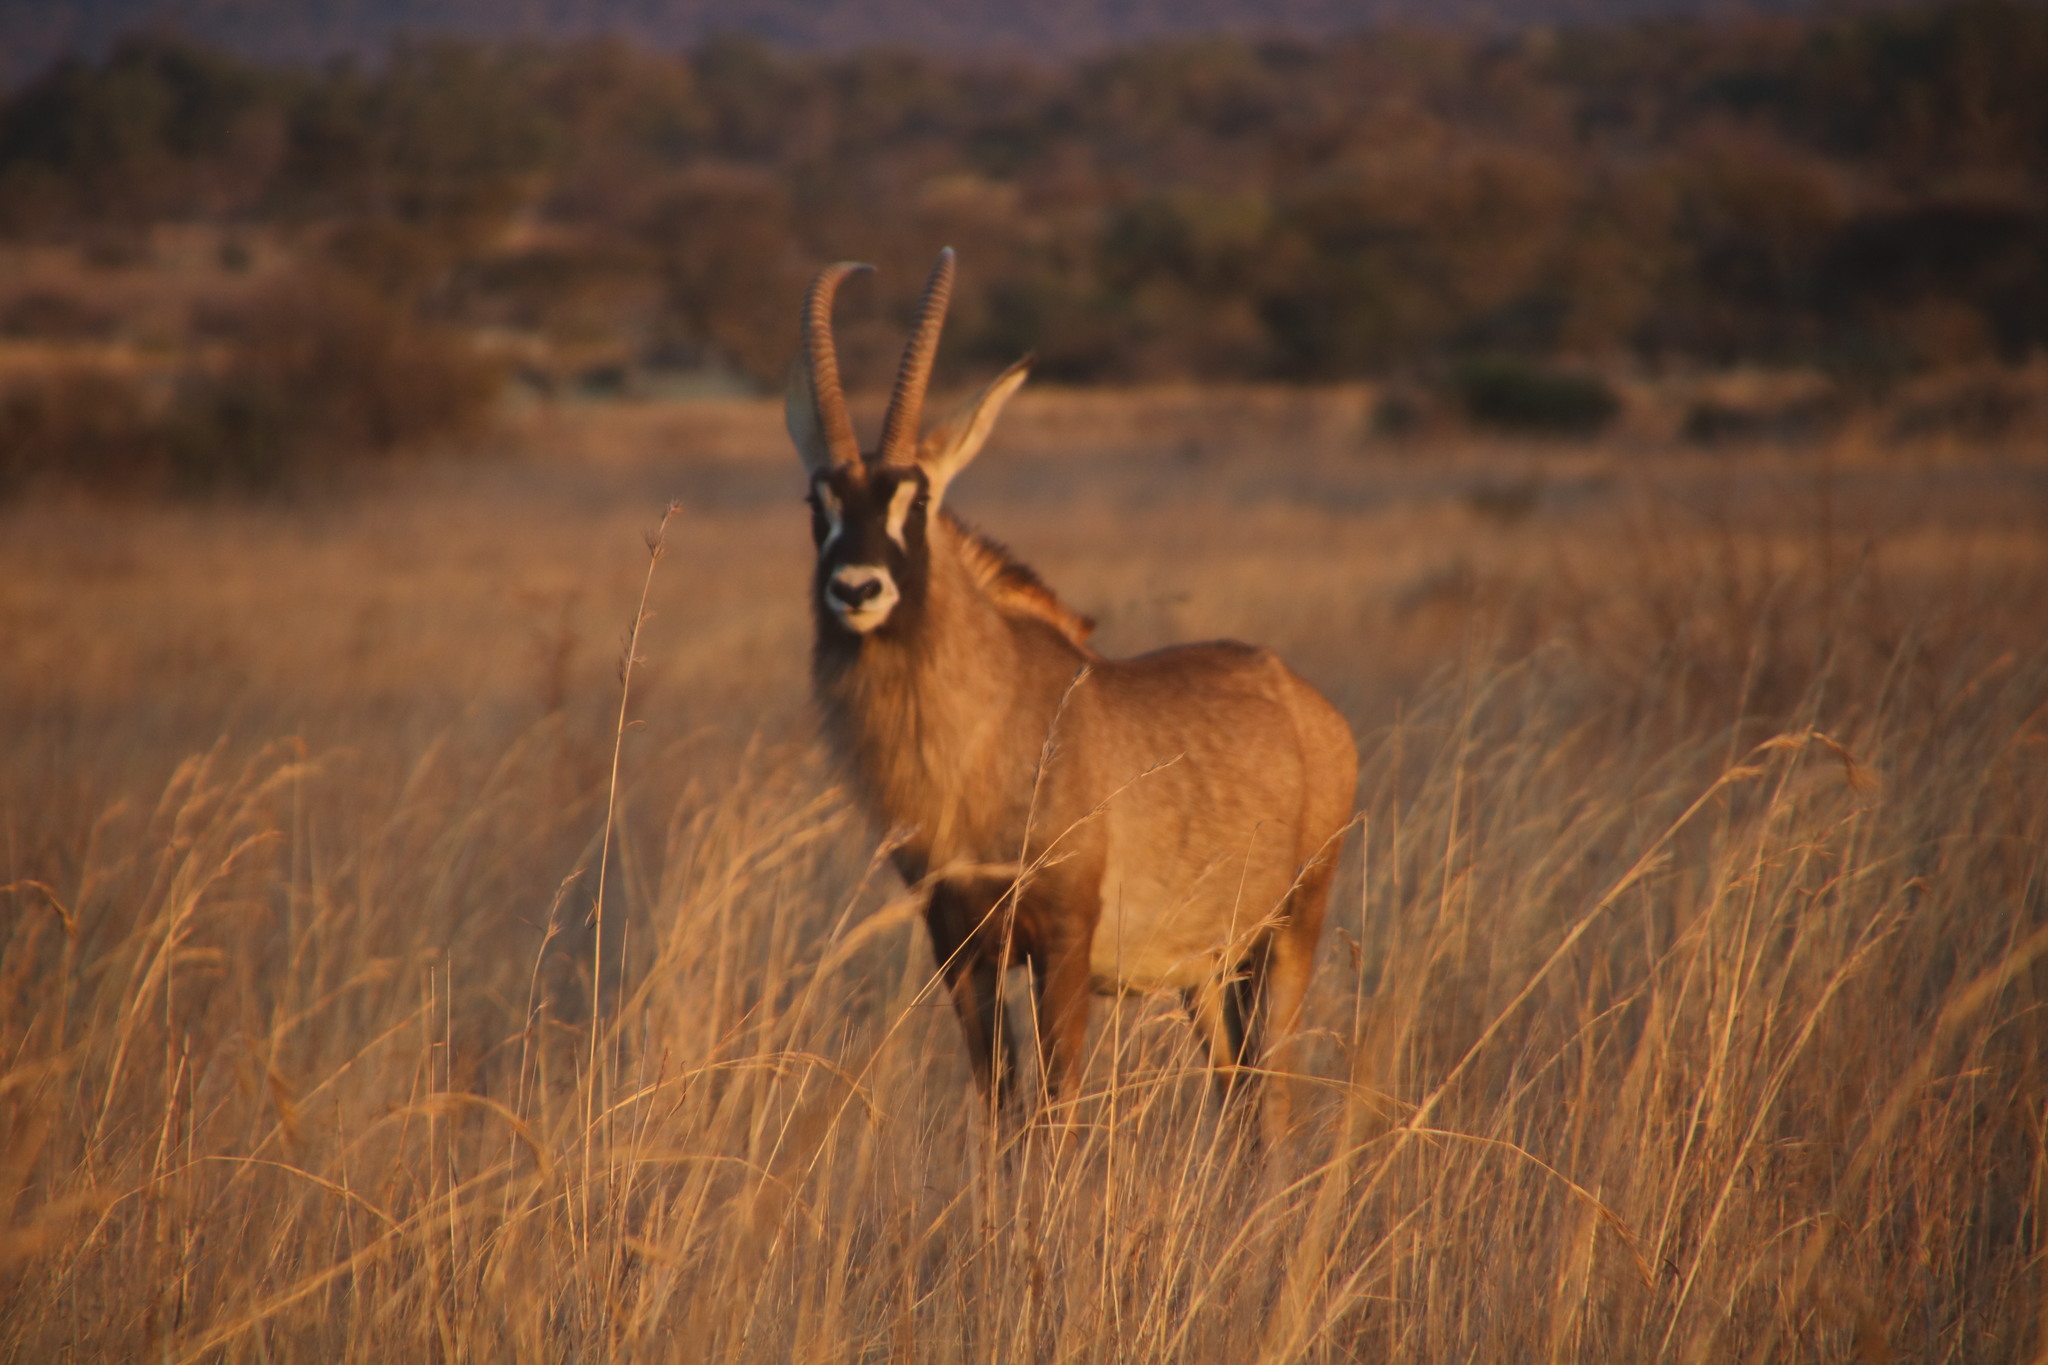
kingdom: Animalia
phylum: Chordata
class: Mammalia
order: Artiodactyla
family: Bovidae
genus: Hippotragus
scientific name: Hippotragus equinus
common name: Roan antelope
